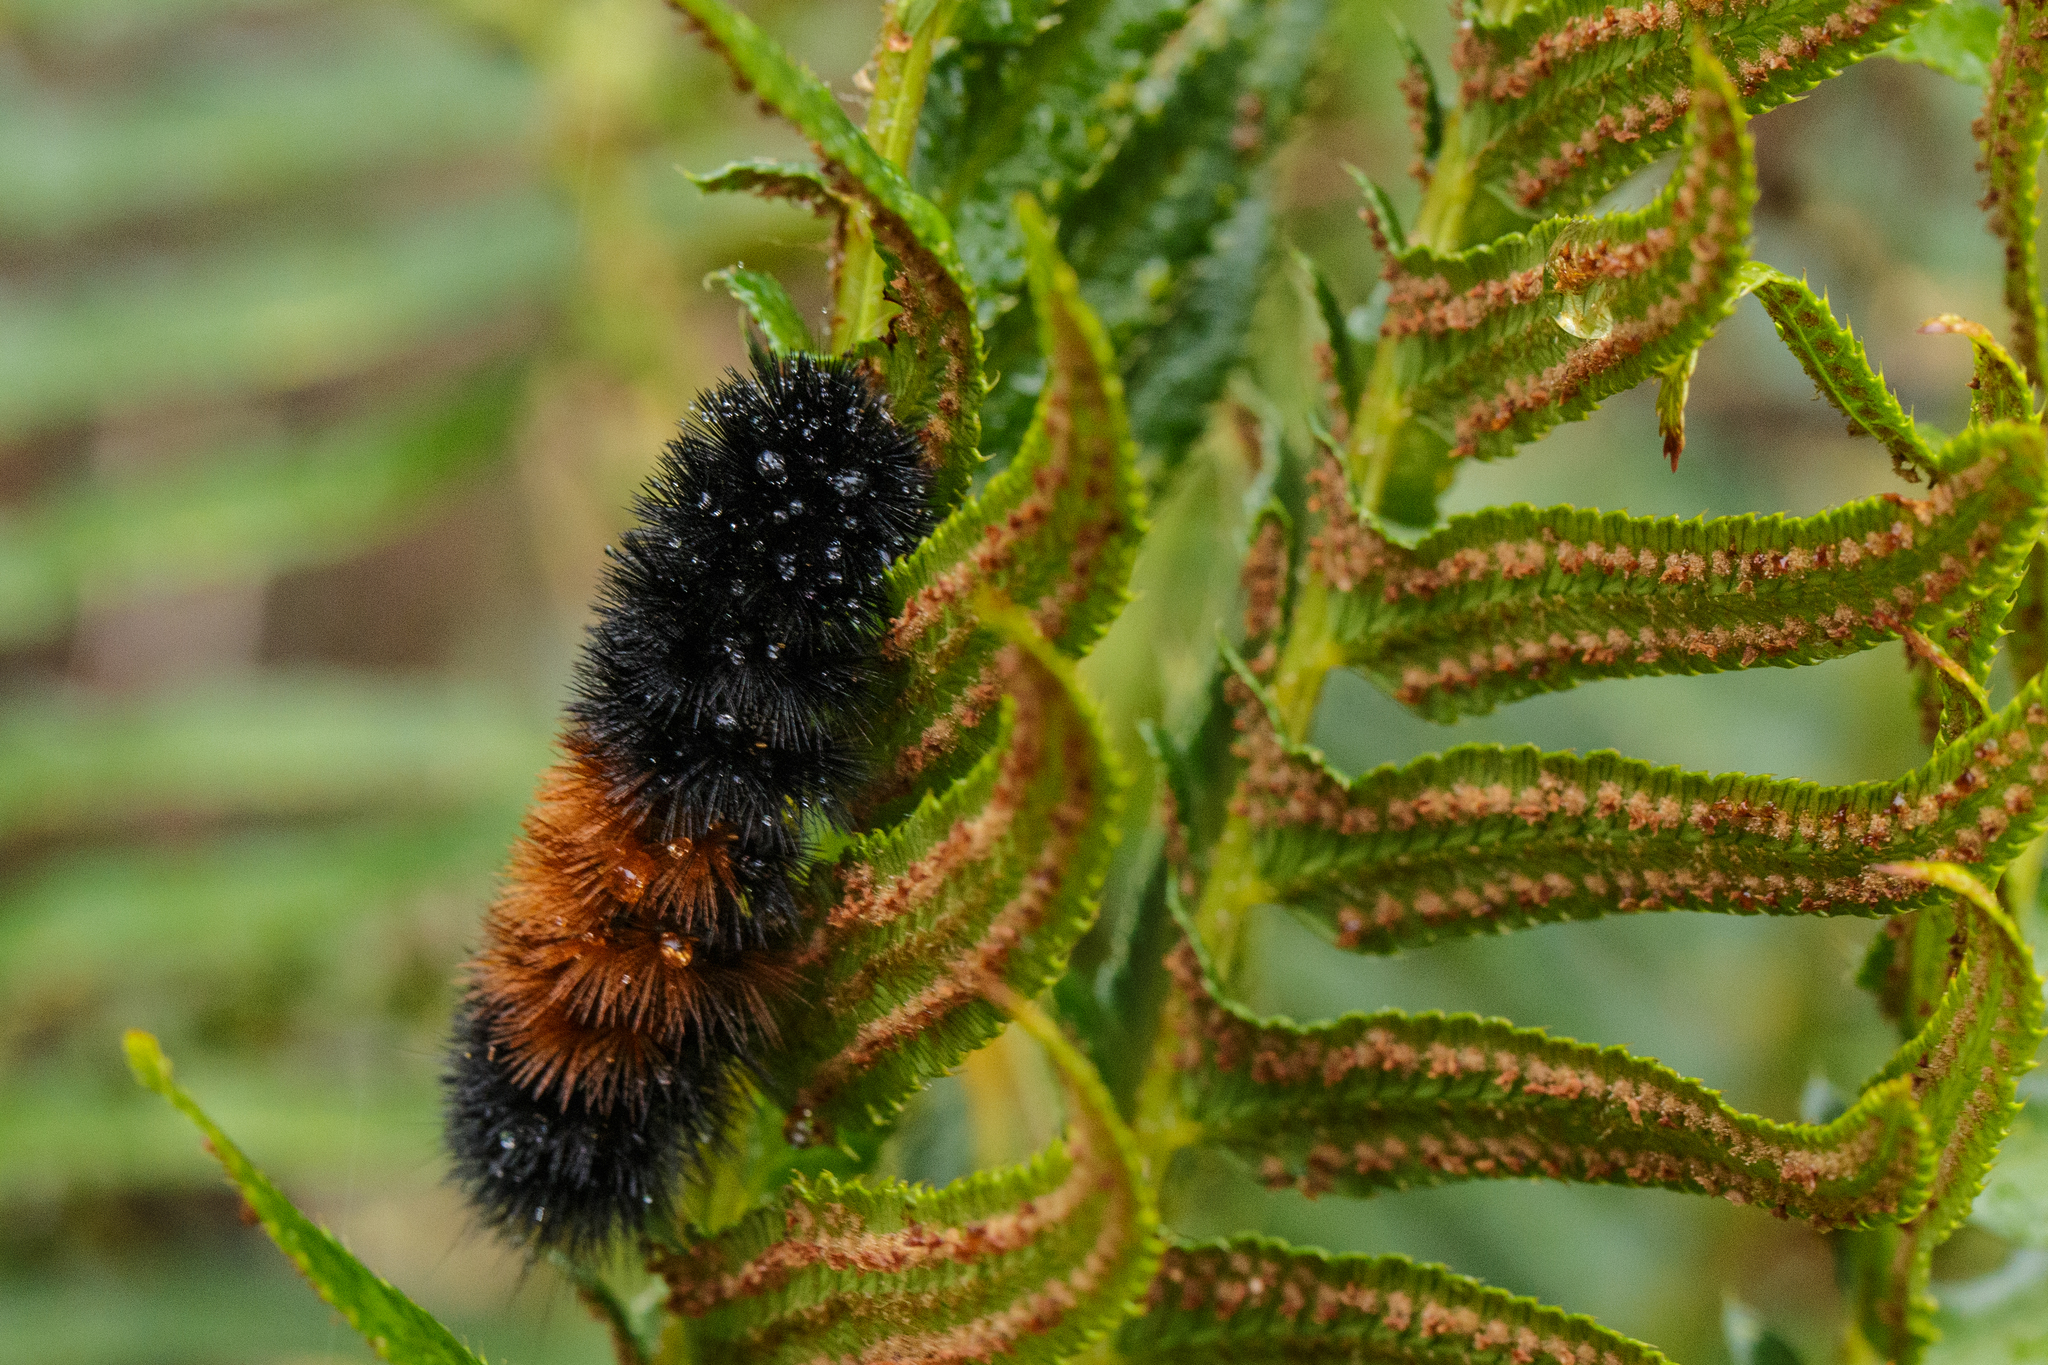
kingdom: Animalia
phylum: Arthropoda
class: Insecta
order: Lepidoptera
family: Erebidae
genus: Pyrrharctia
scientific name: Pyrrharctia isabella
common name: Isabella tiger moth
